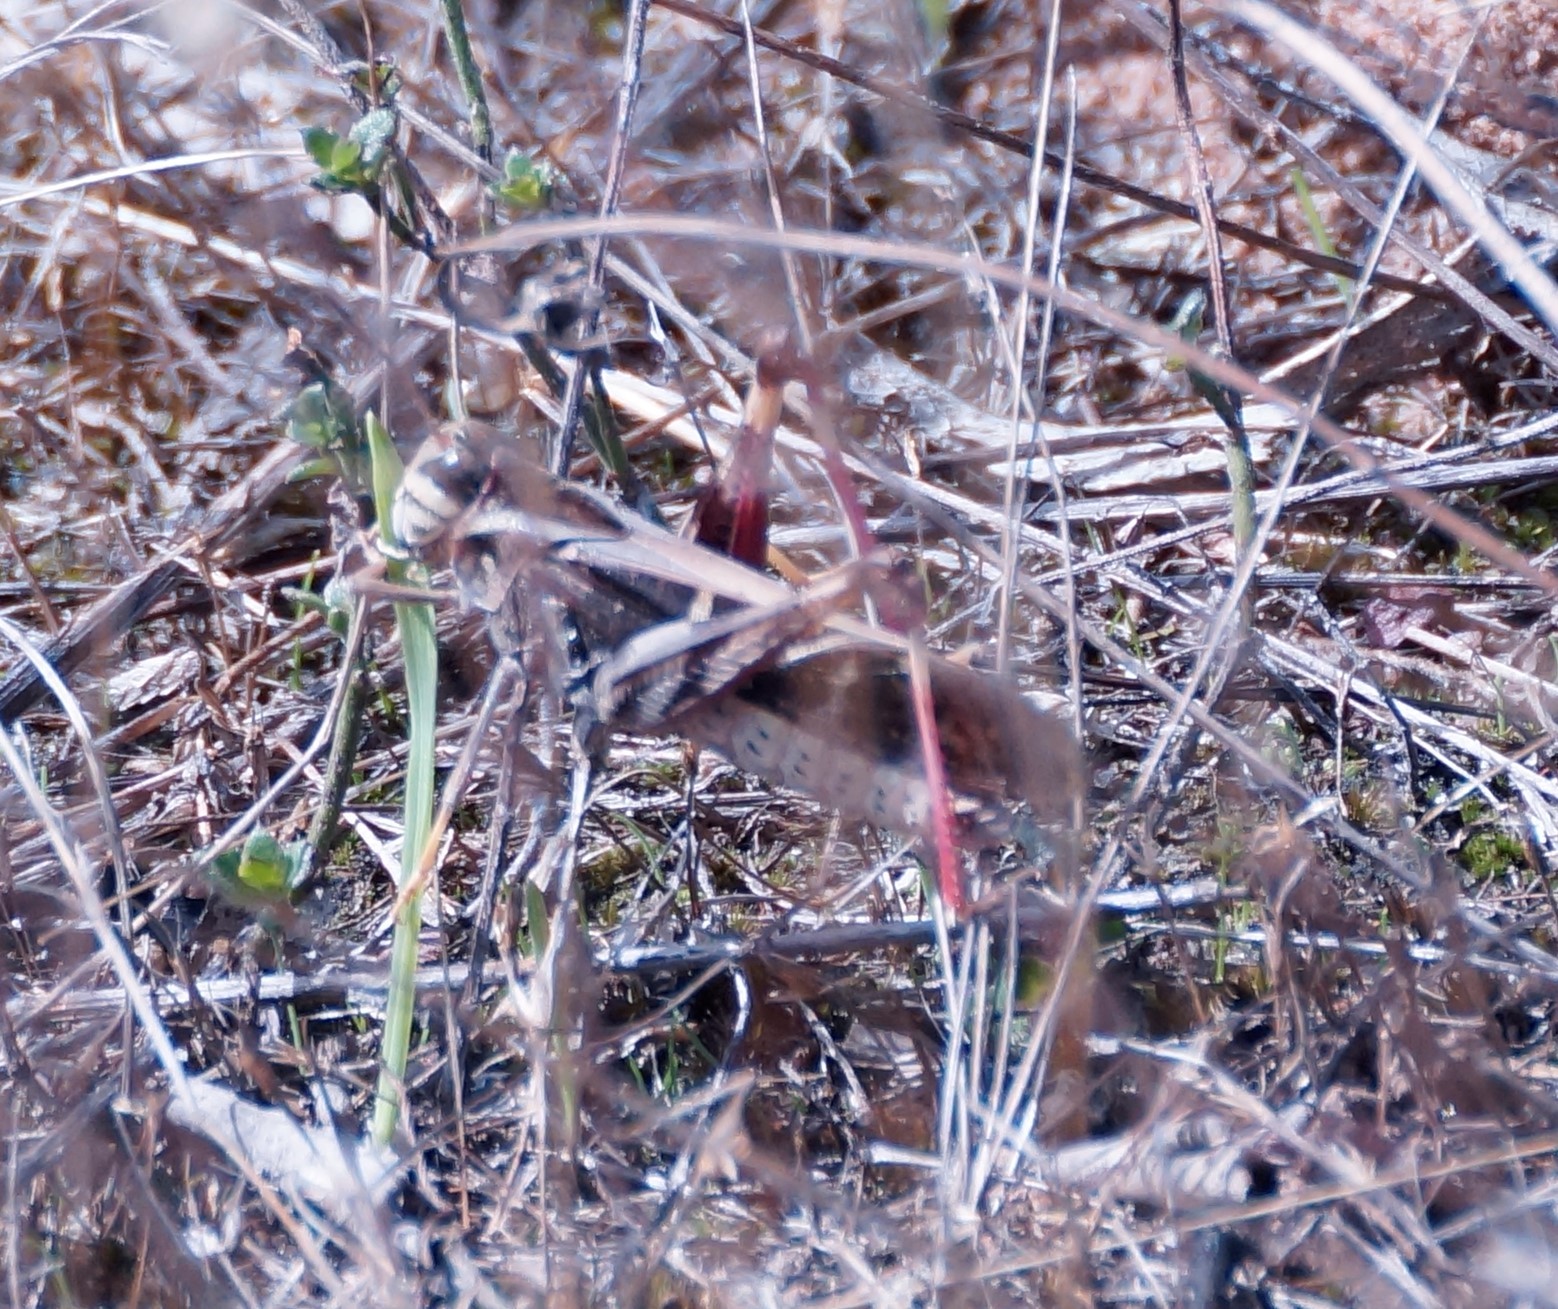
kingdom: Animalia
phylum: Arthropoda
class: Insecta
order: Orthoptera
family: Acrididae
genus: Gastrimargus
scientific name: Gastrimargus musicus
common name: Yellow-winged locust
